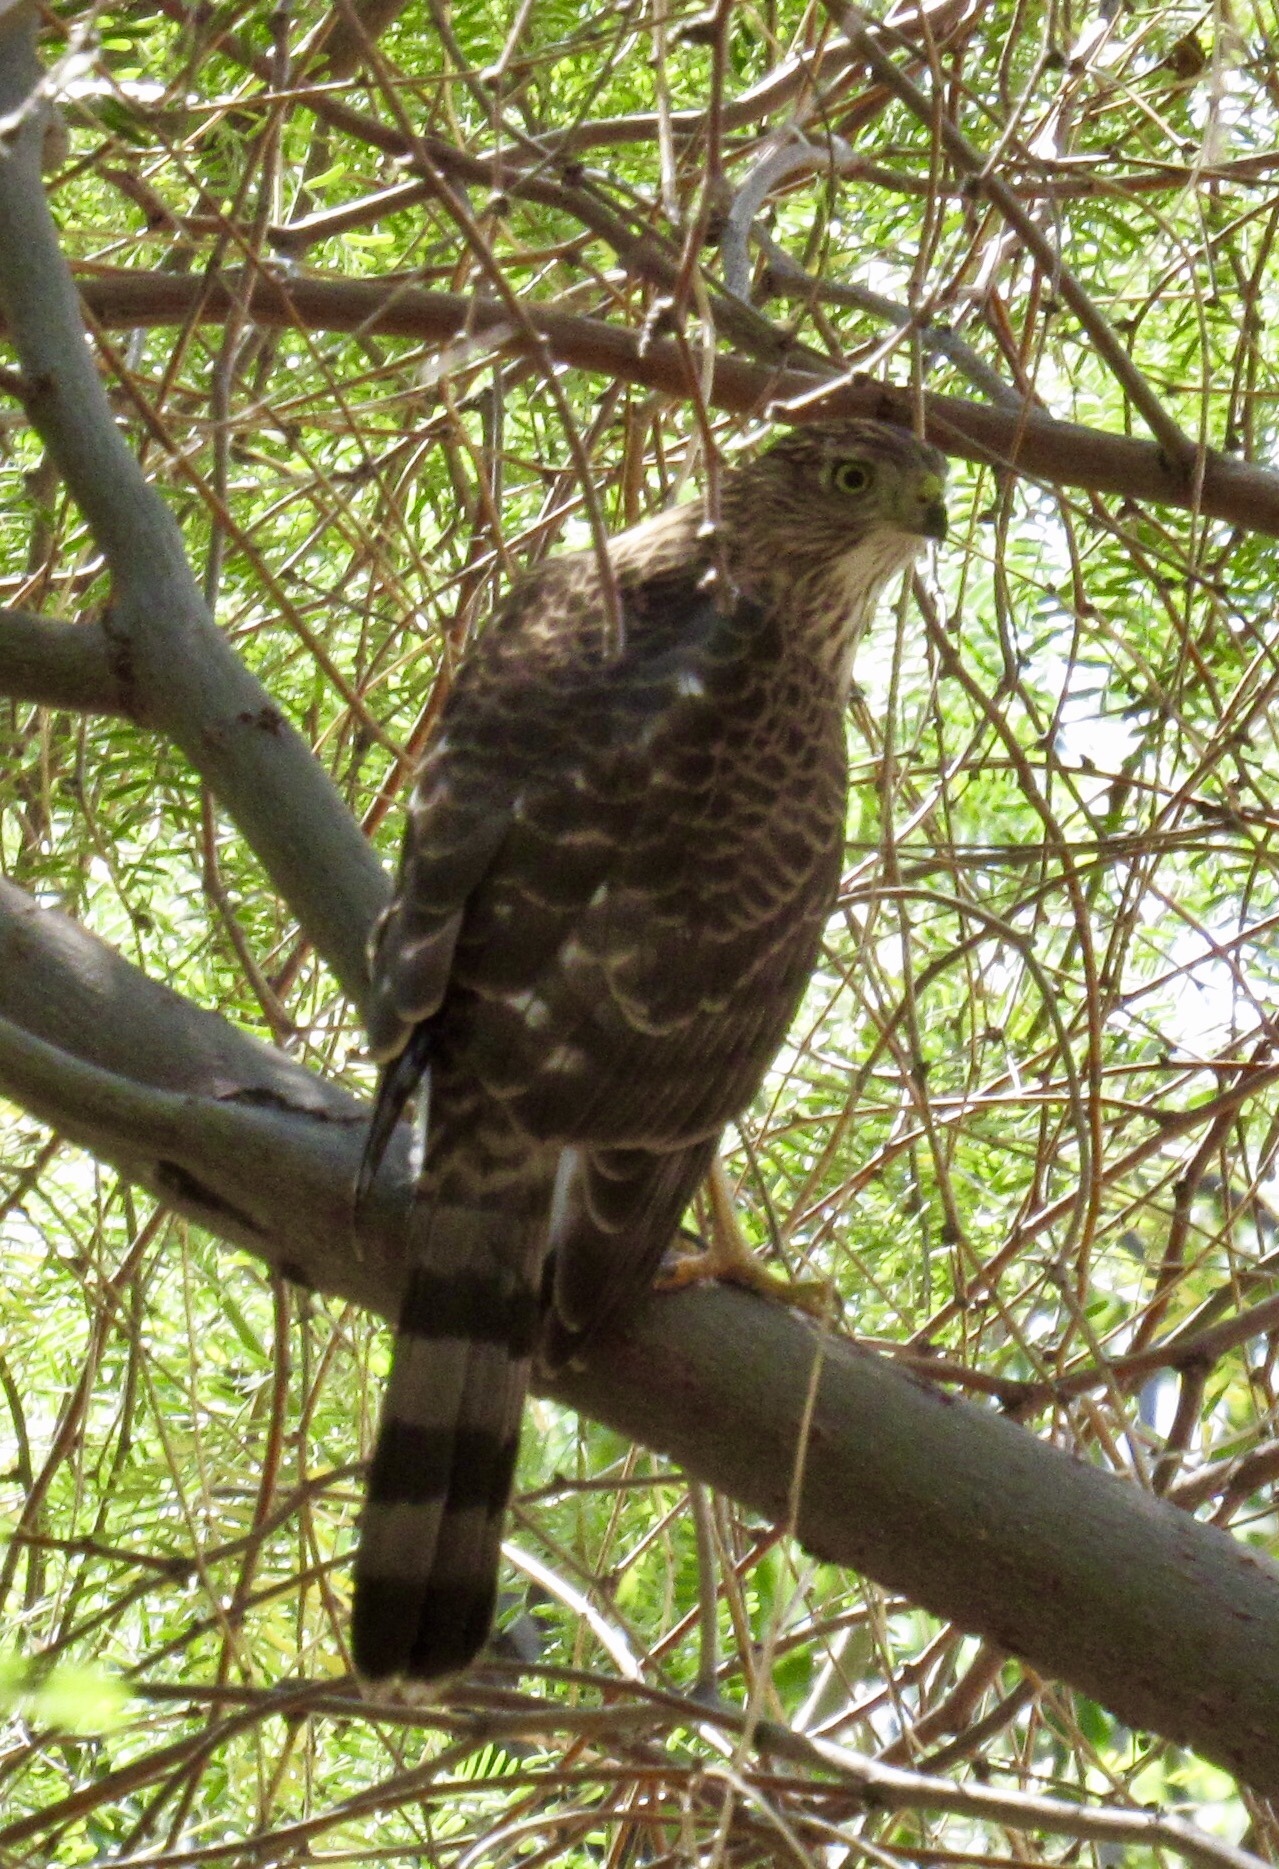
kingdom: Animalia
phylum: Chordata
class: Aves
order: Accipitriformes
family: Accipitridae
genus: Accipiter
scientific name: Accipiter cooperii
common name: Cooper's hawk
